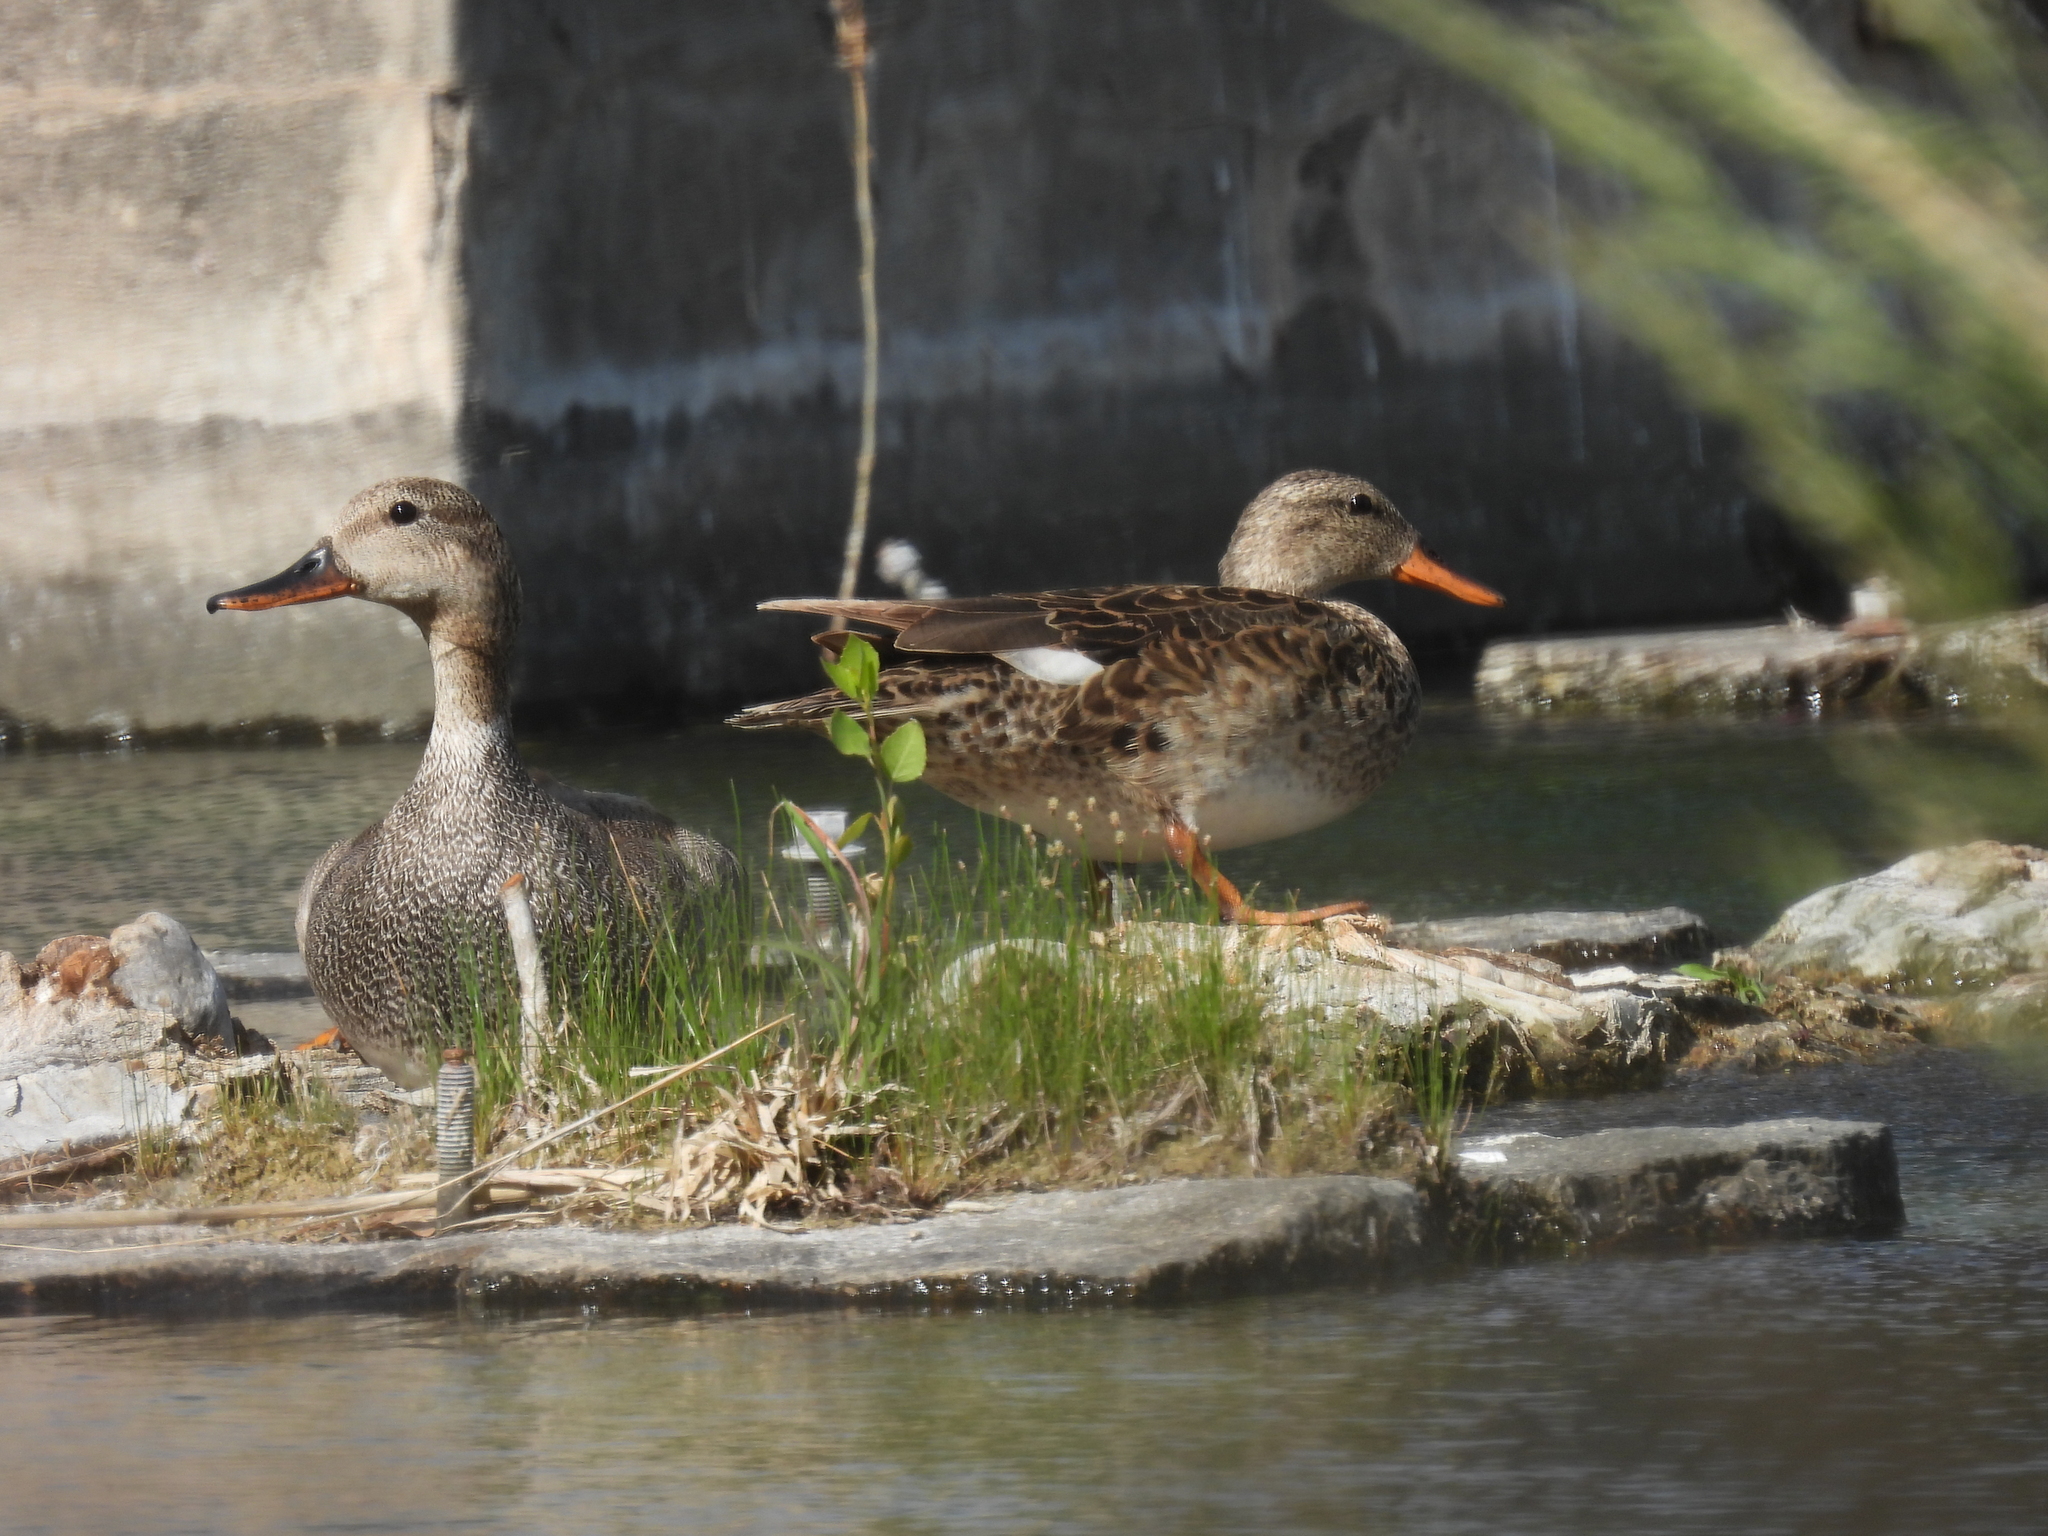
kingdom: Animalia
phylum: Chordata
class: Aves
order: Anseriformes
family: Anatidae
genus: Mareca
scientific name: Mareca strepera
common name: Gadwall
